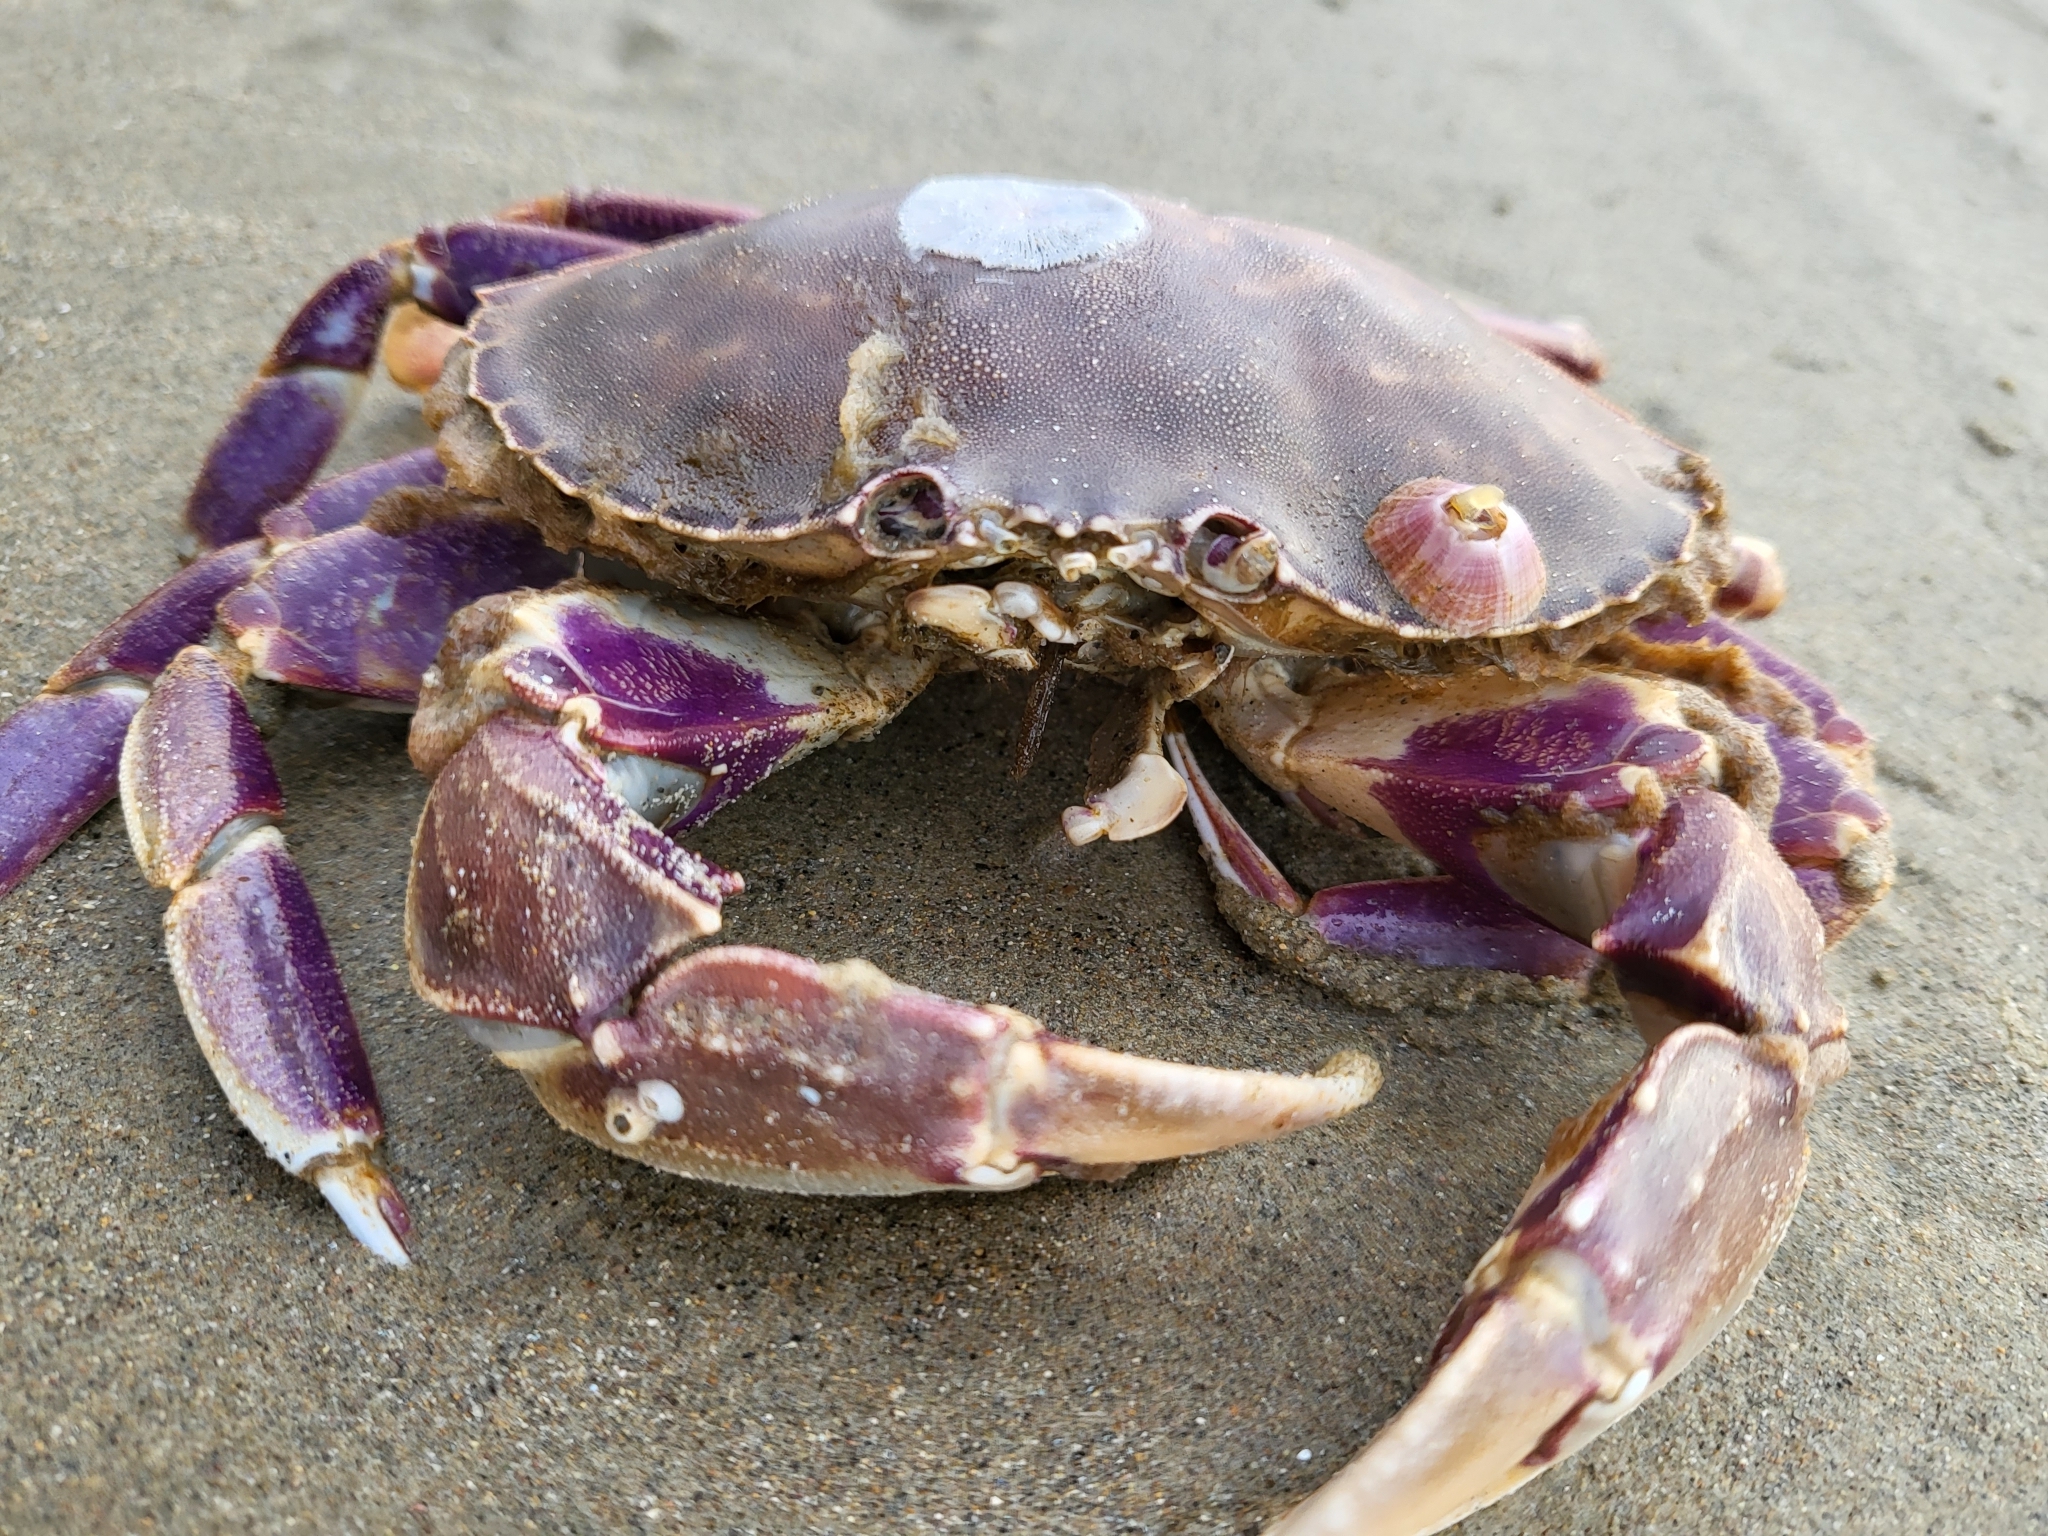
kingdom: Animalia
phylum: Arthropoda
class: Malacostraca
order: Decapoda
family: Cancridae
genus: Metacarcinus
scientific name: Metacarcinus gracilis
